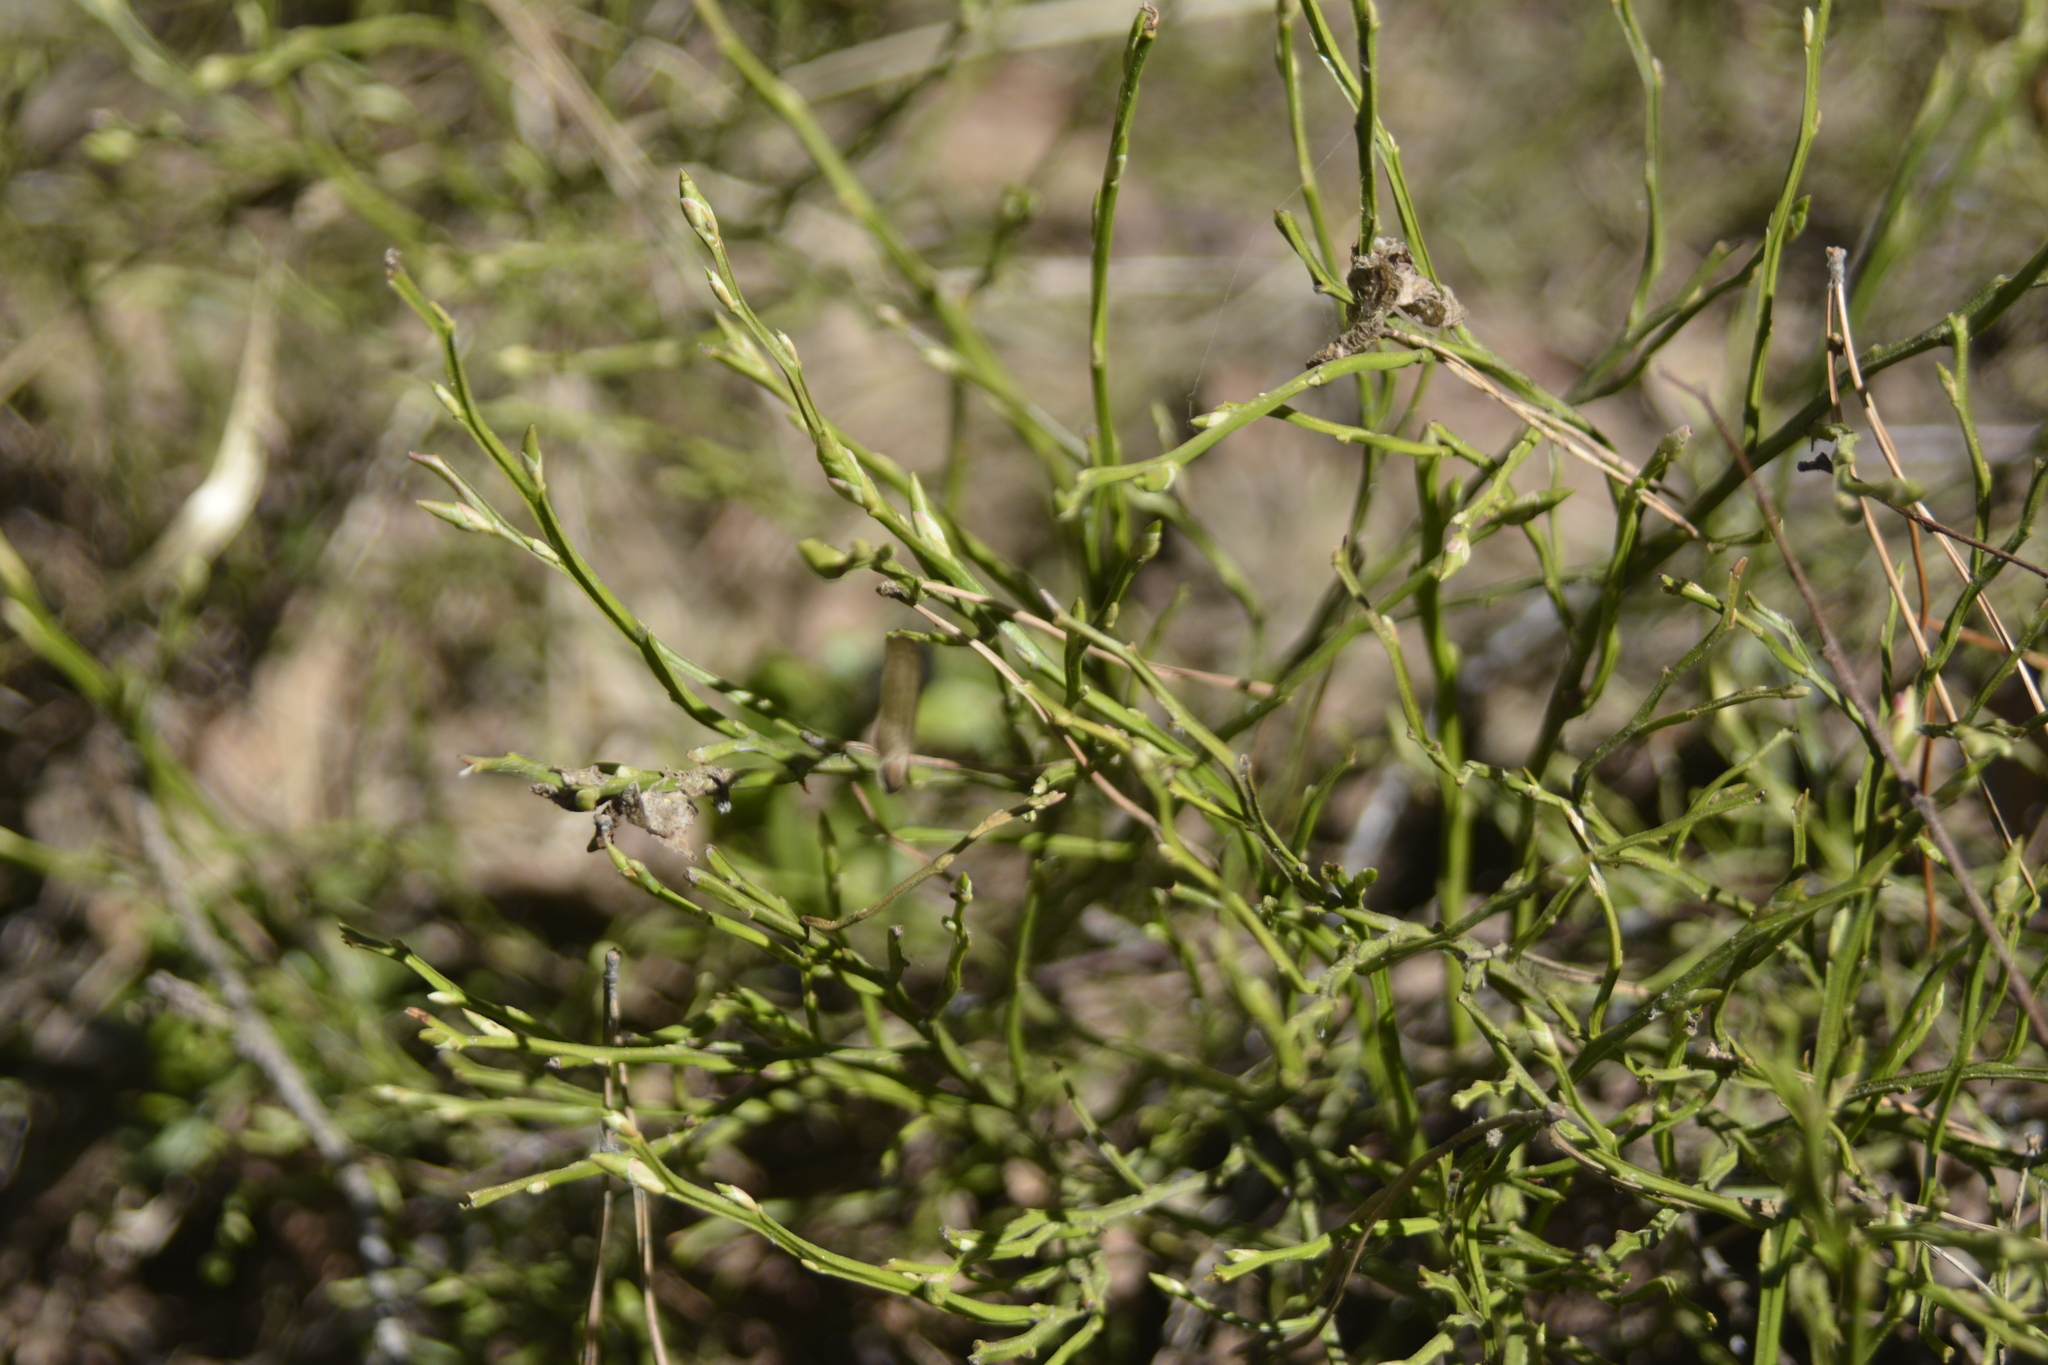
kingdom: Plantae
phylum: Tracheophyta
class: Magnoliopsida
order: Ericales
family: Ericaceae
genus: Vaccinium
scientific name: Vaccinium myrtillus
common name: Bilberry
